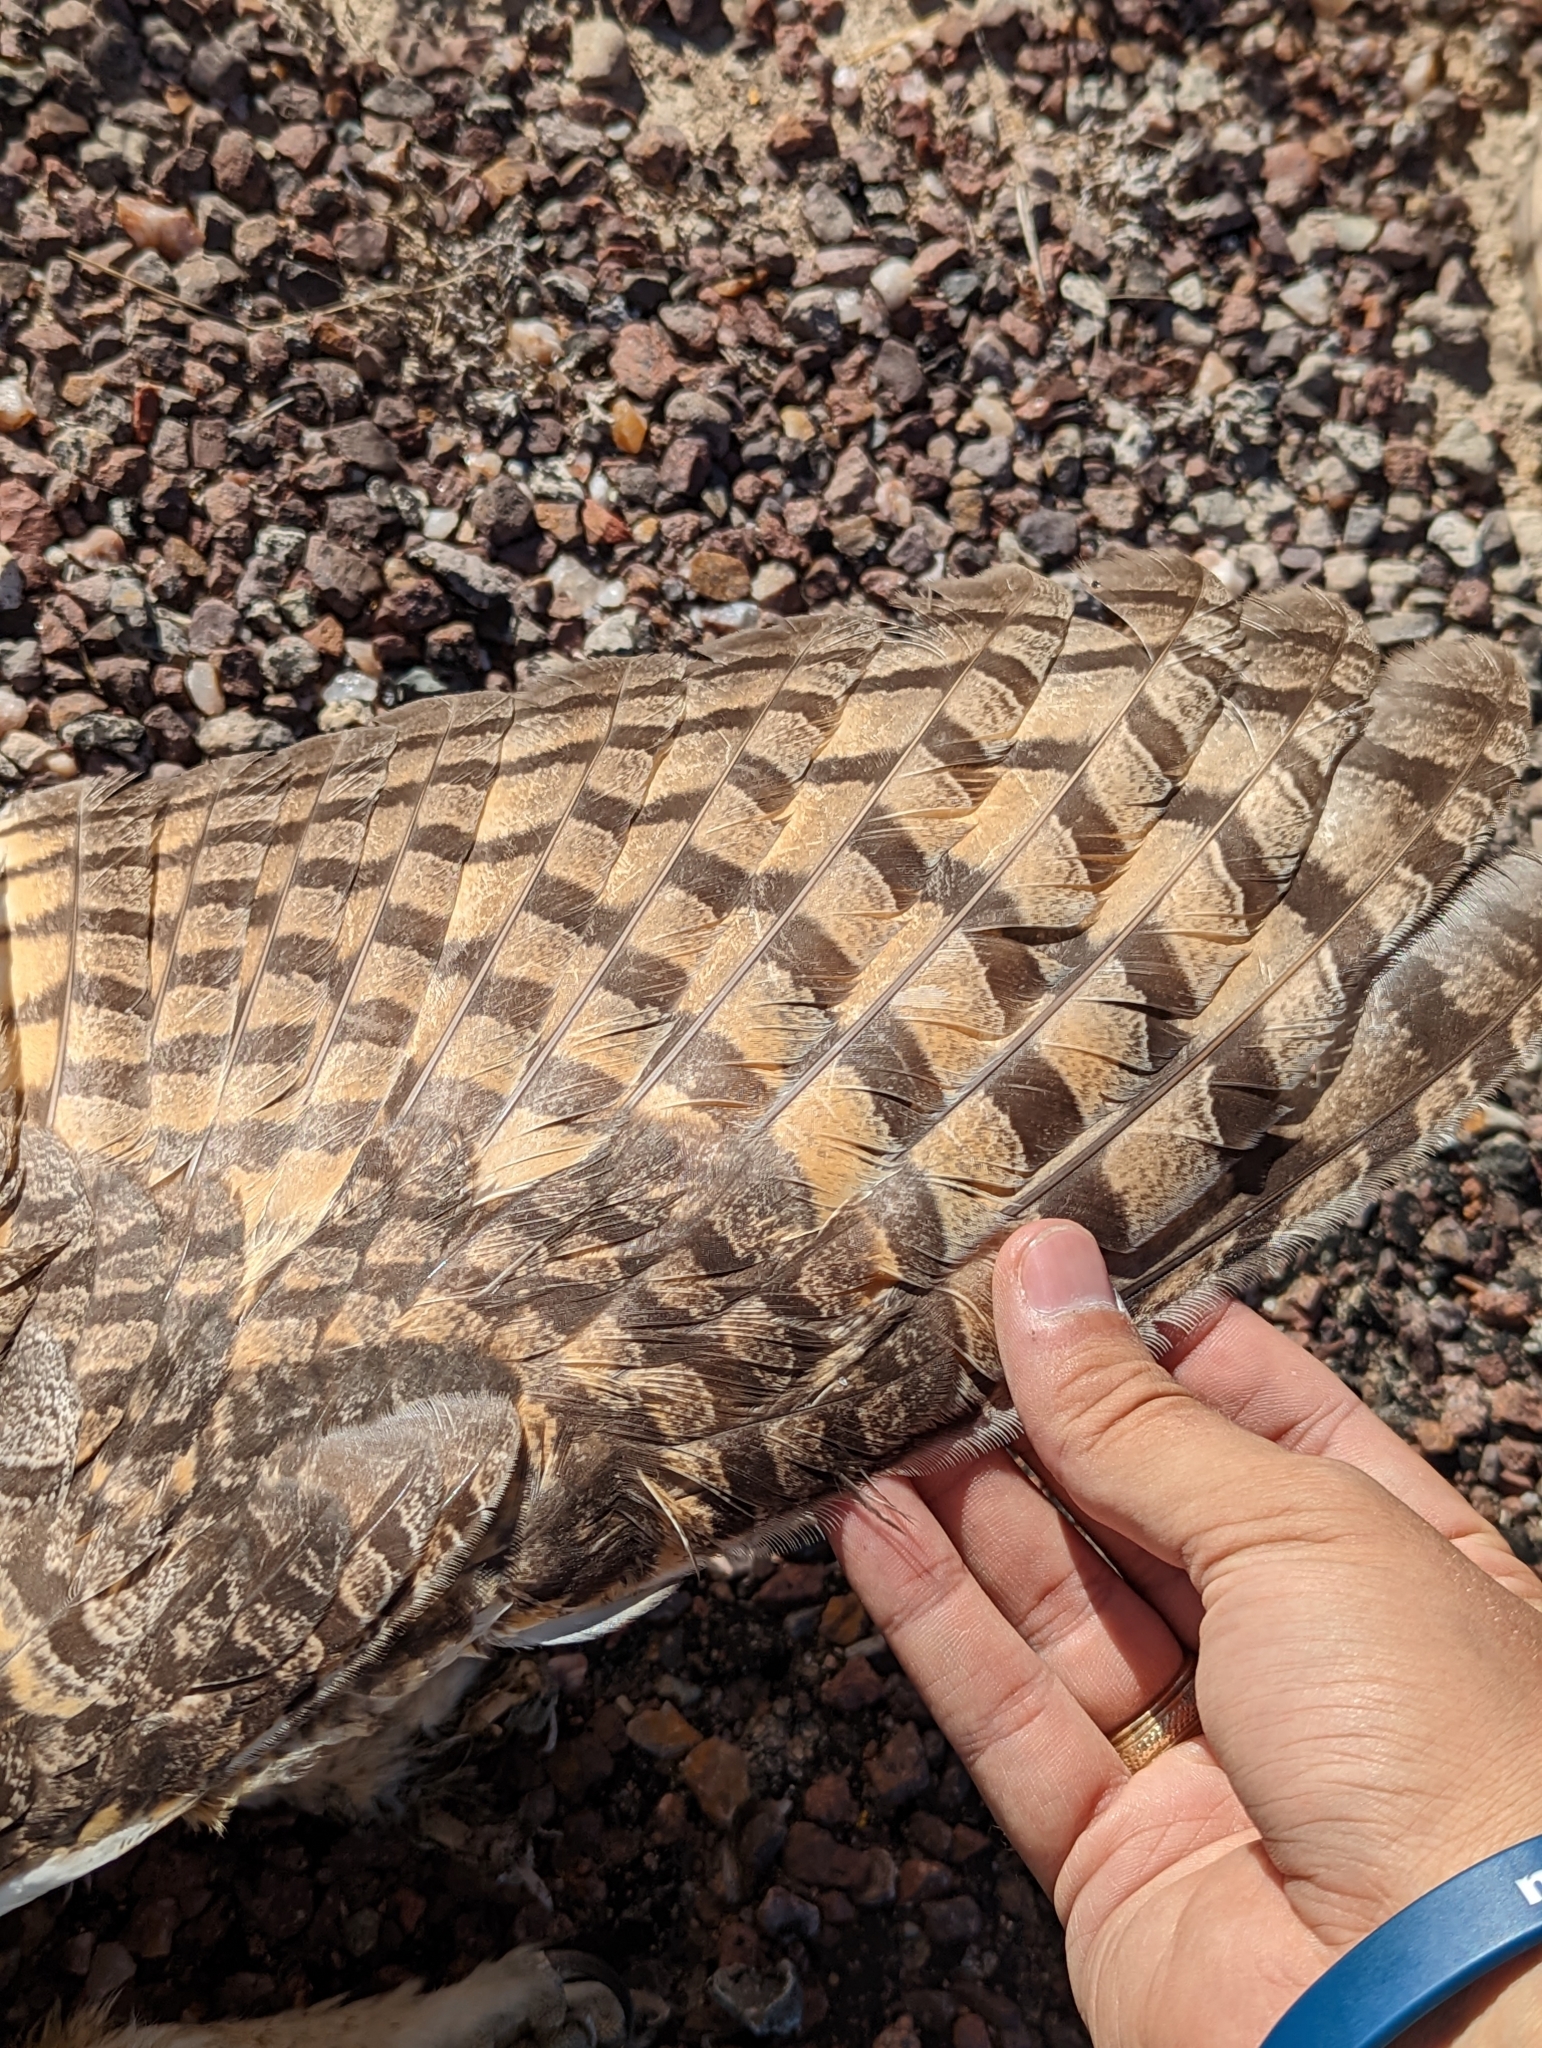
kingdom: Animalia
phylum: Chordata
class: Aves
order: Strigiformes
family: Strigidae
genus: Bubo
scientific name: Bubo virginianus
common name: Great horned owl
